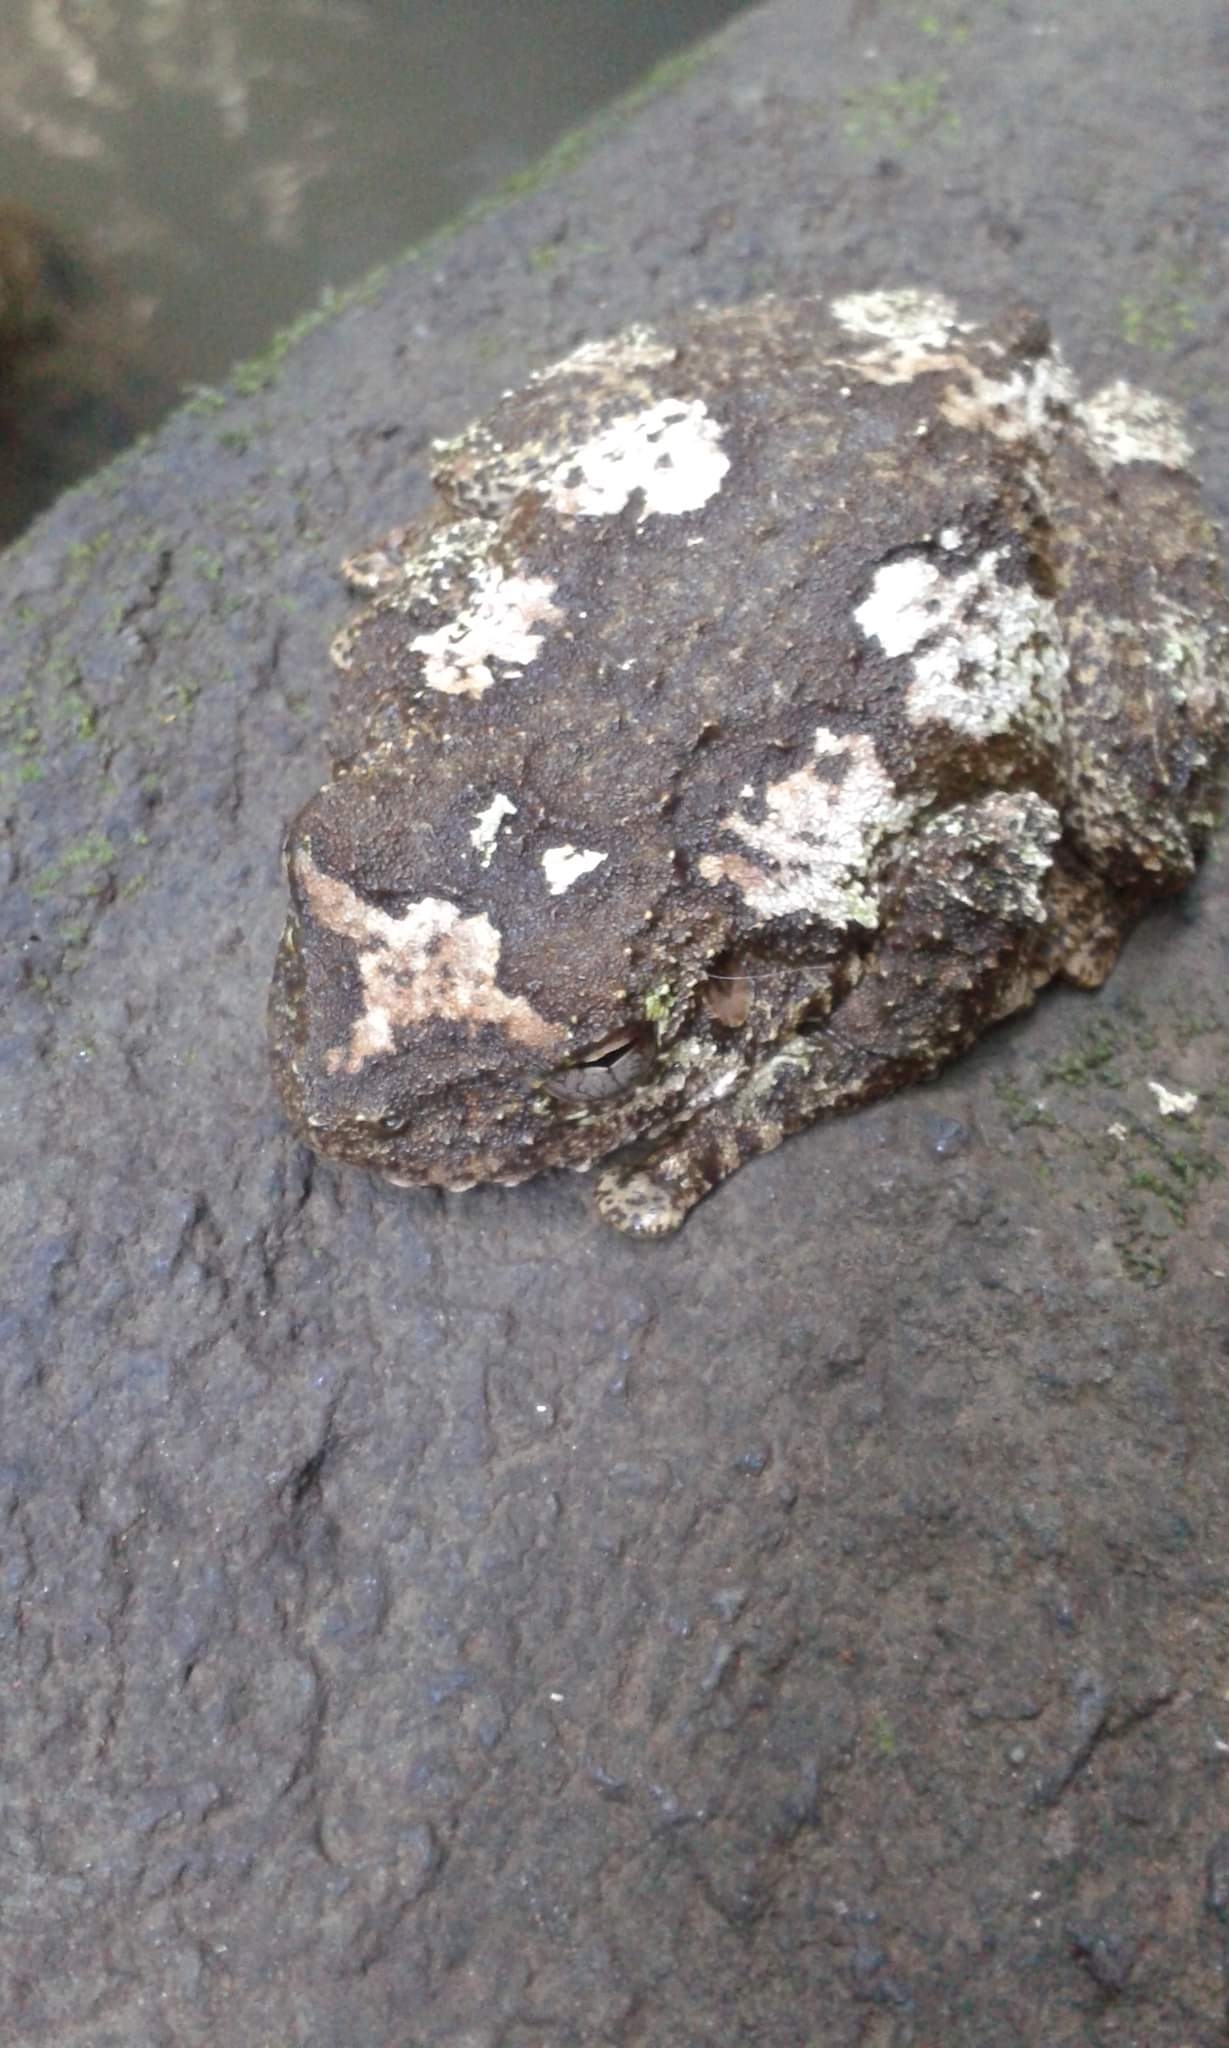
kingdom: Animalia
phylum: Chordata
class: Amphibia
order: Anura
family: Pelodryadidae
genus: Ranoidea
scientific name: Ranoidea serrata
